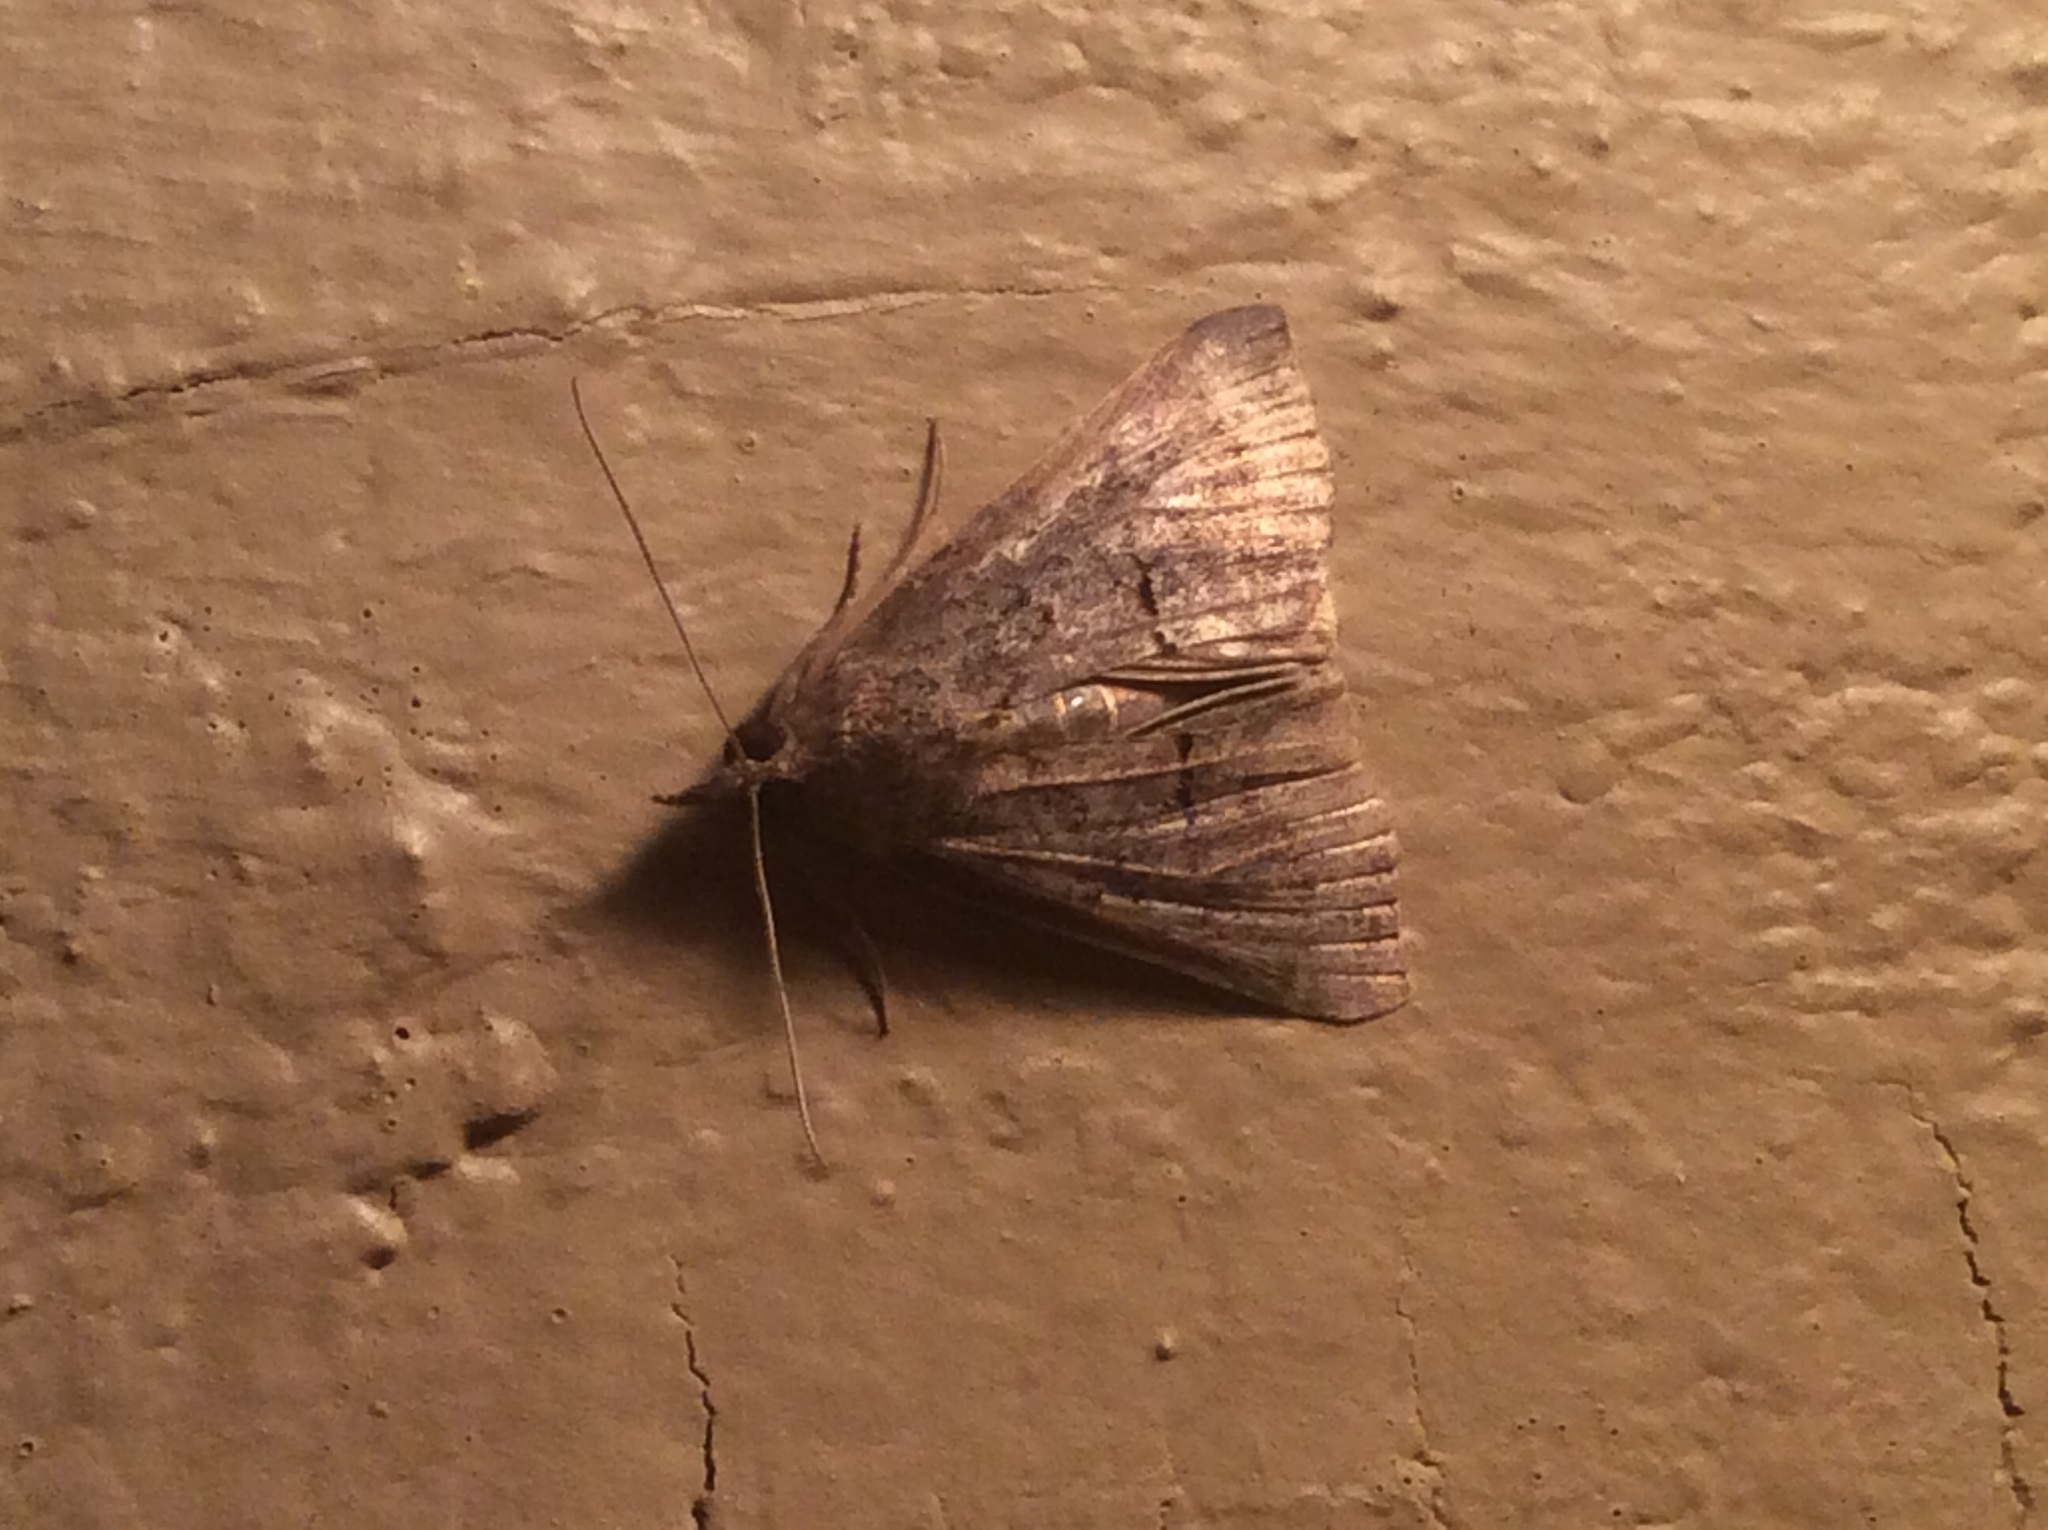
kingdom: Animalia
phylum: Arthropoda
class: Insecta
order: Lepidoptera
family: Erebidae
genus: Hypena
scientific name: Hypena scabra
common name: Green cloverworm
